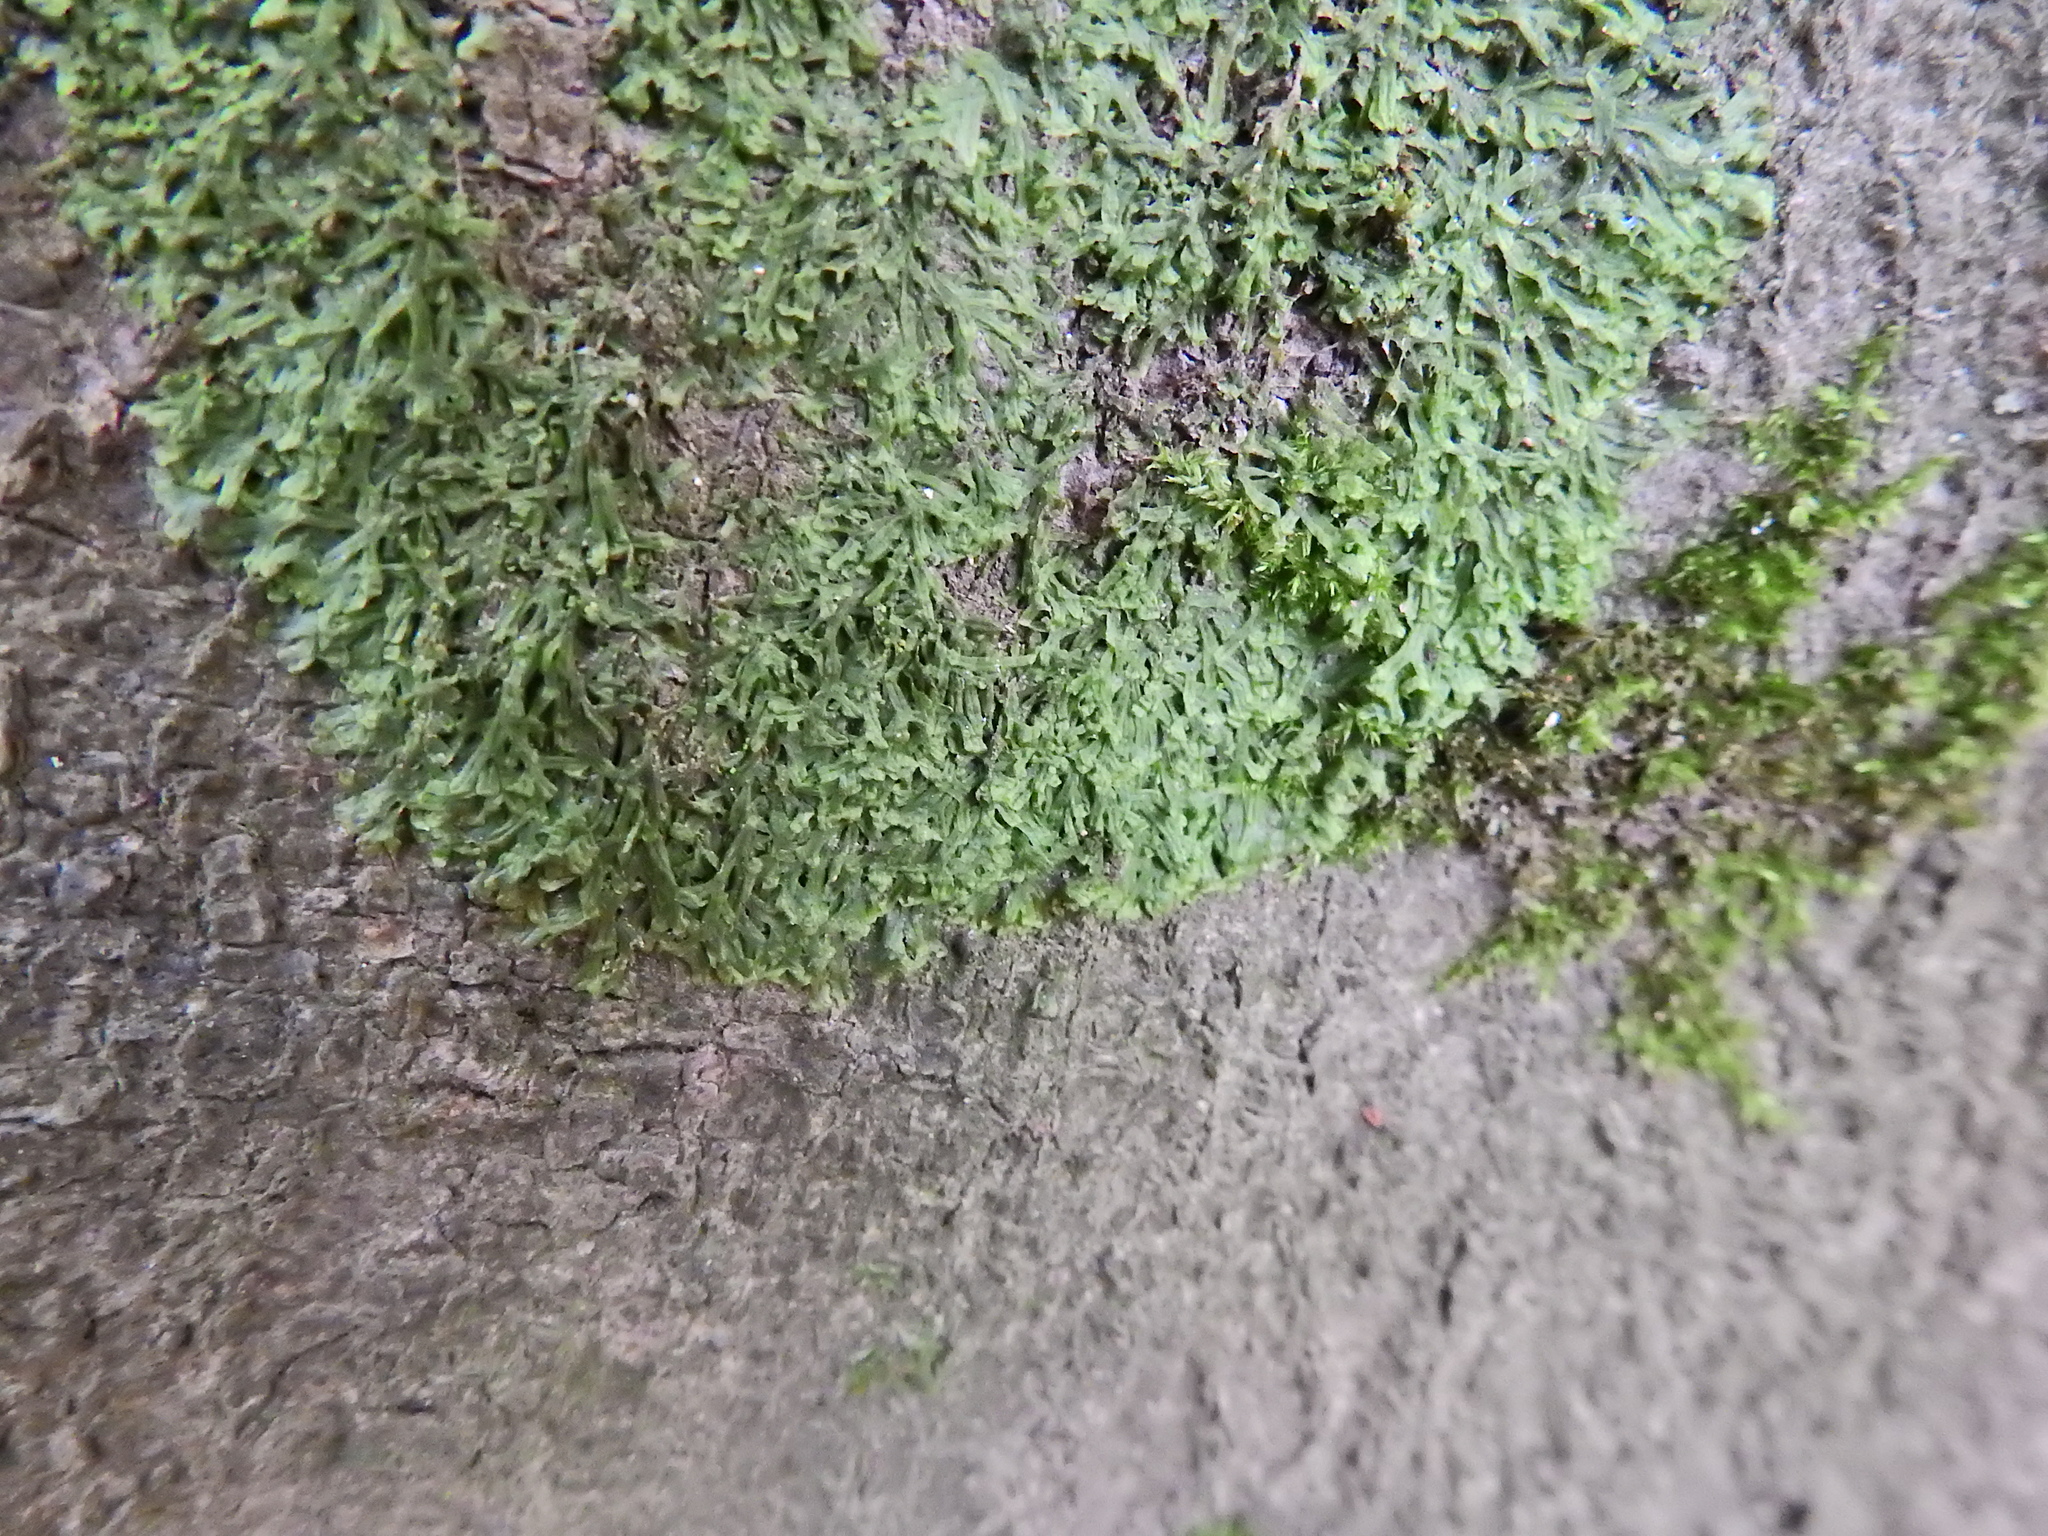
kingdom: Plantae
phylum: Marchantiophyta
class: Jungermanniopsida
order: Metzgeriales
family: Metzgeriaceae
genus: Metzgeria
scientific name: Metzgeria furcata
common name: Forked veilwort
